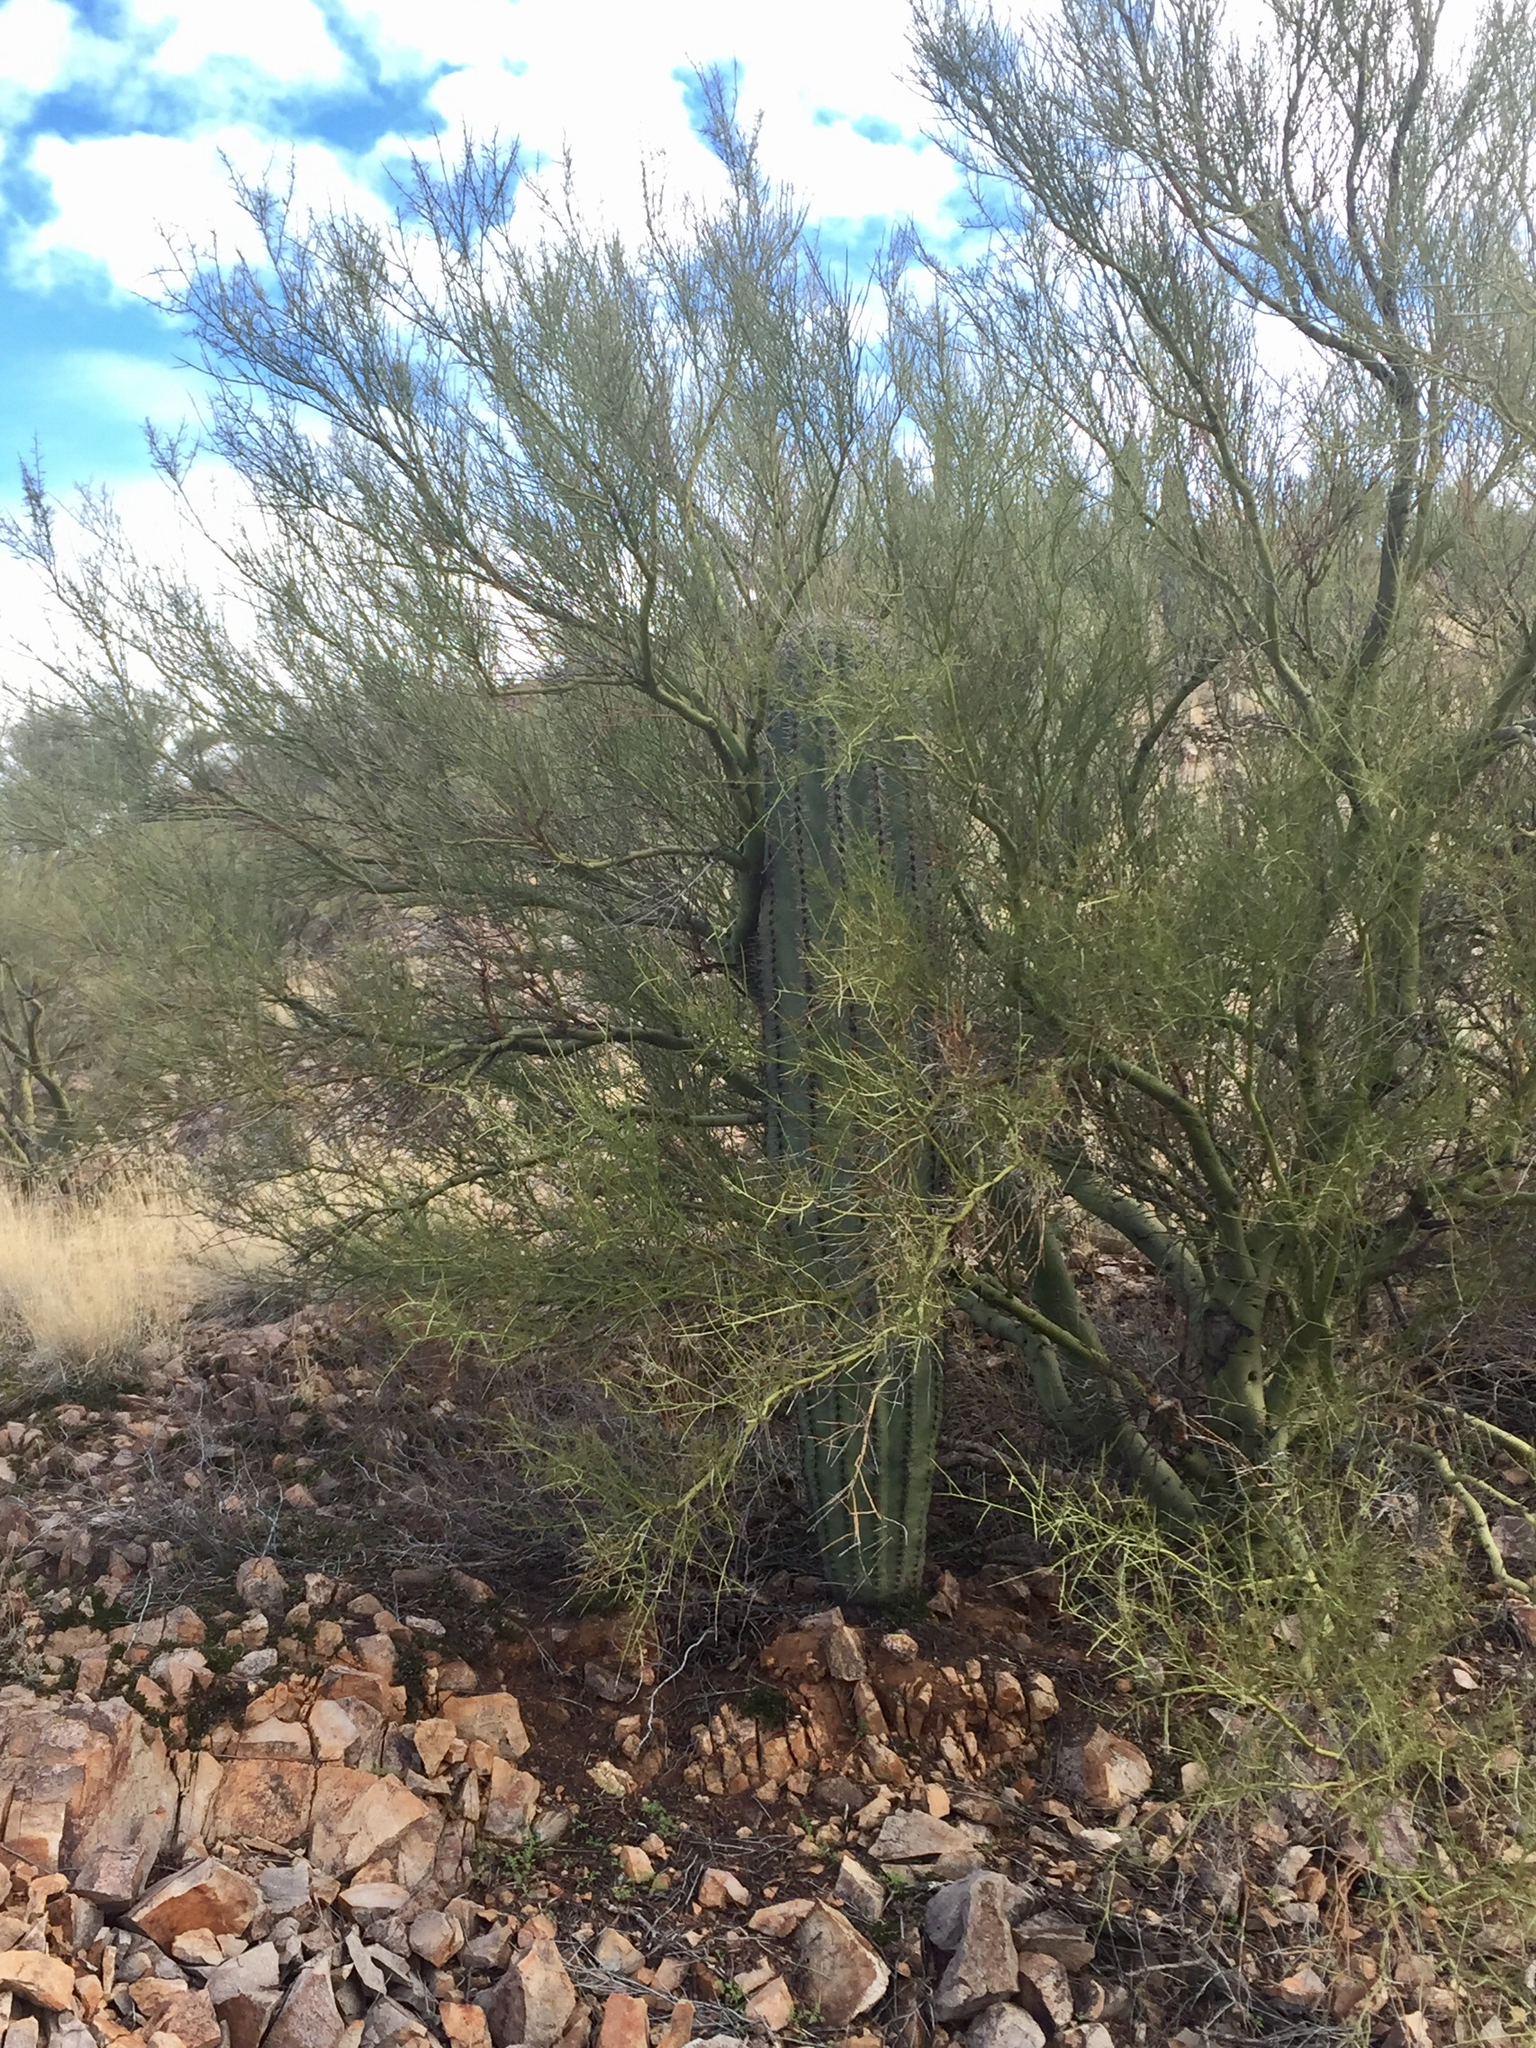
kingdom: Plantae
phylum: Tracheophyta
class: Magnoliopsida
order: Caryophyllales
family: Cactaceae
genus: Carnegiea
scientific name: Carnegiea gigantea
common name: Saguaro
